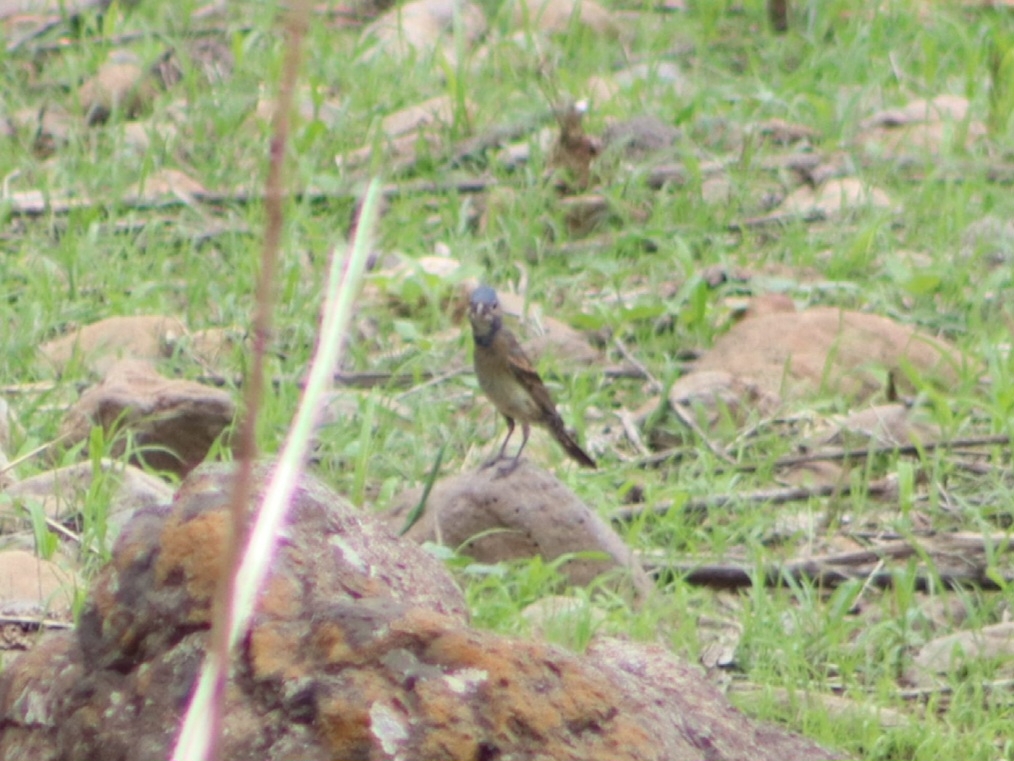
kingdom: Animalia
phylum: Chordata
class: Aves
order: Passeriformes
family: Cardinalidae
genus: Passerina
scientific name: Passerina caerulea
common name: Blue grosbeak
